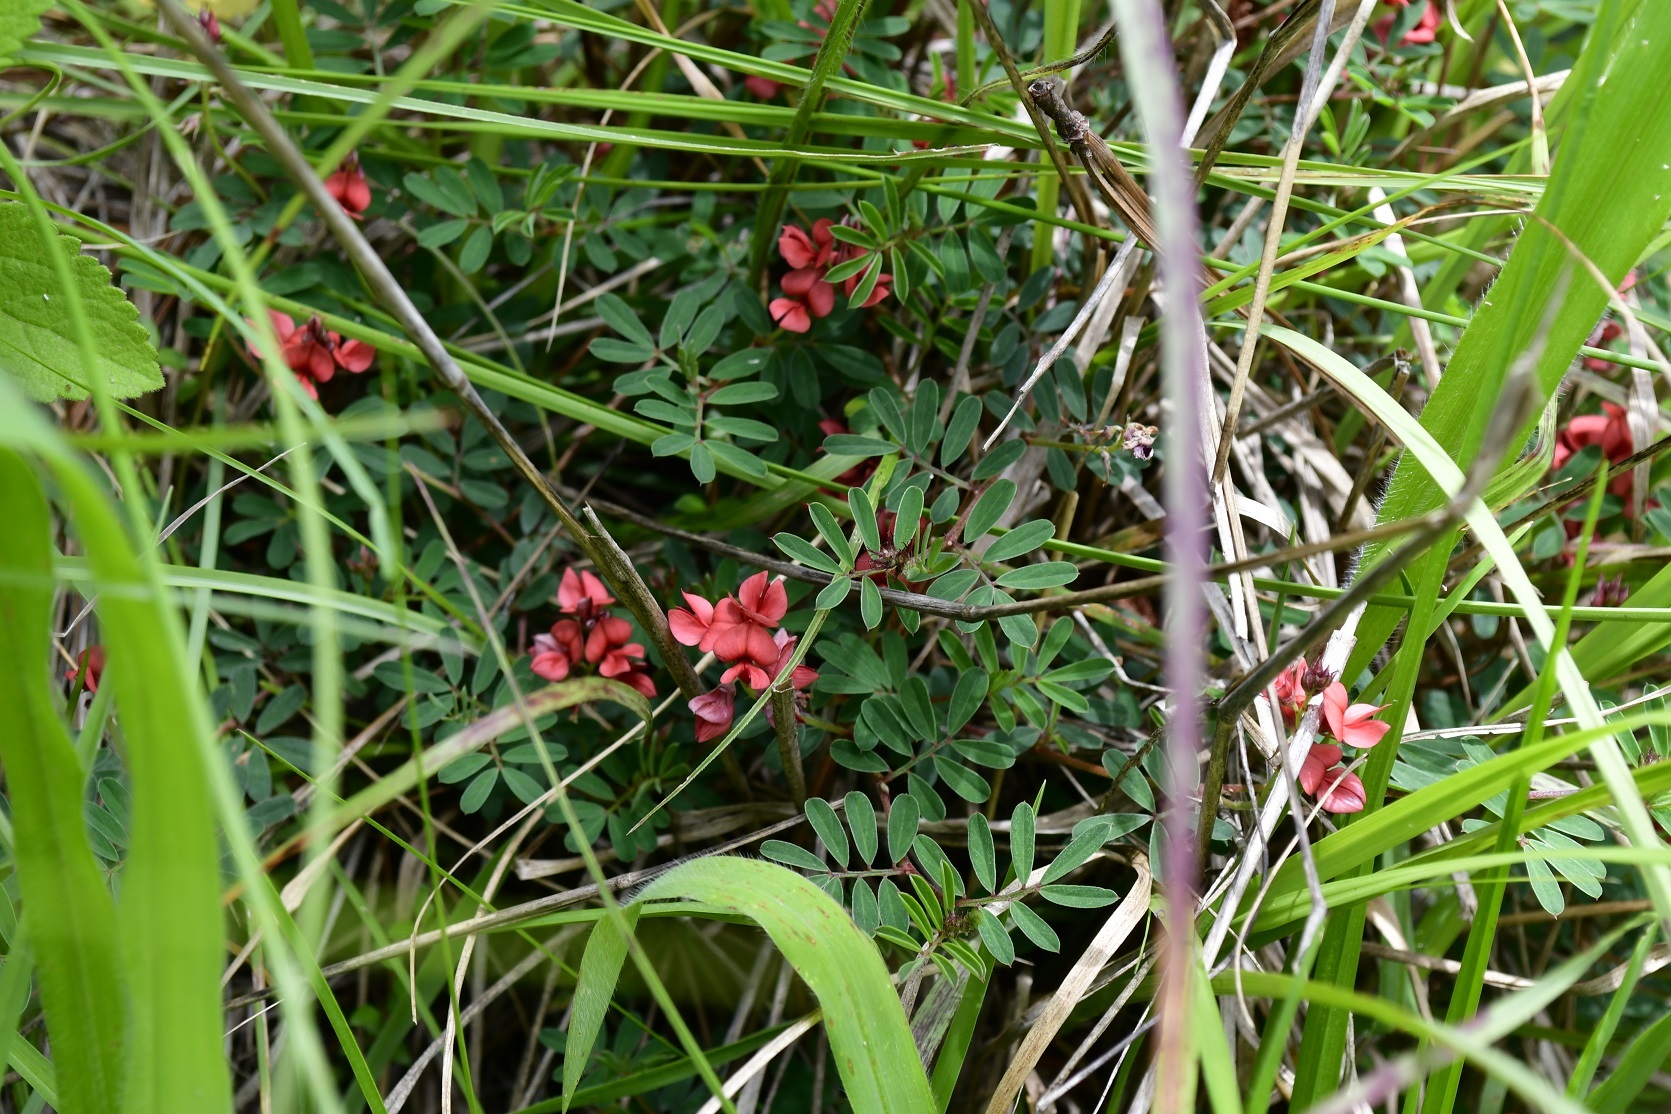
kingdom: Plantae
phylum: Tracheophyta
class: Magnoliopsida
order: Fabales
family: Fabaceae
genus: Indigofera
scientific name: Indigofera miniata
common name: Coast indigo
